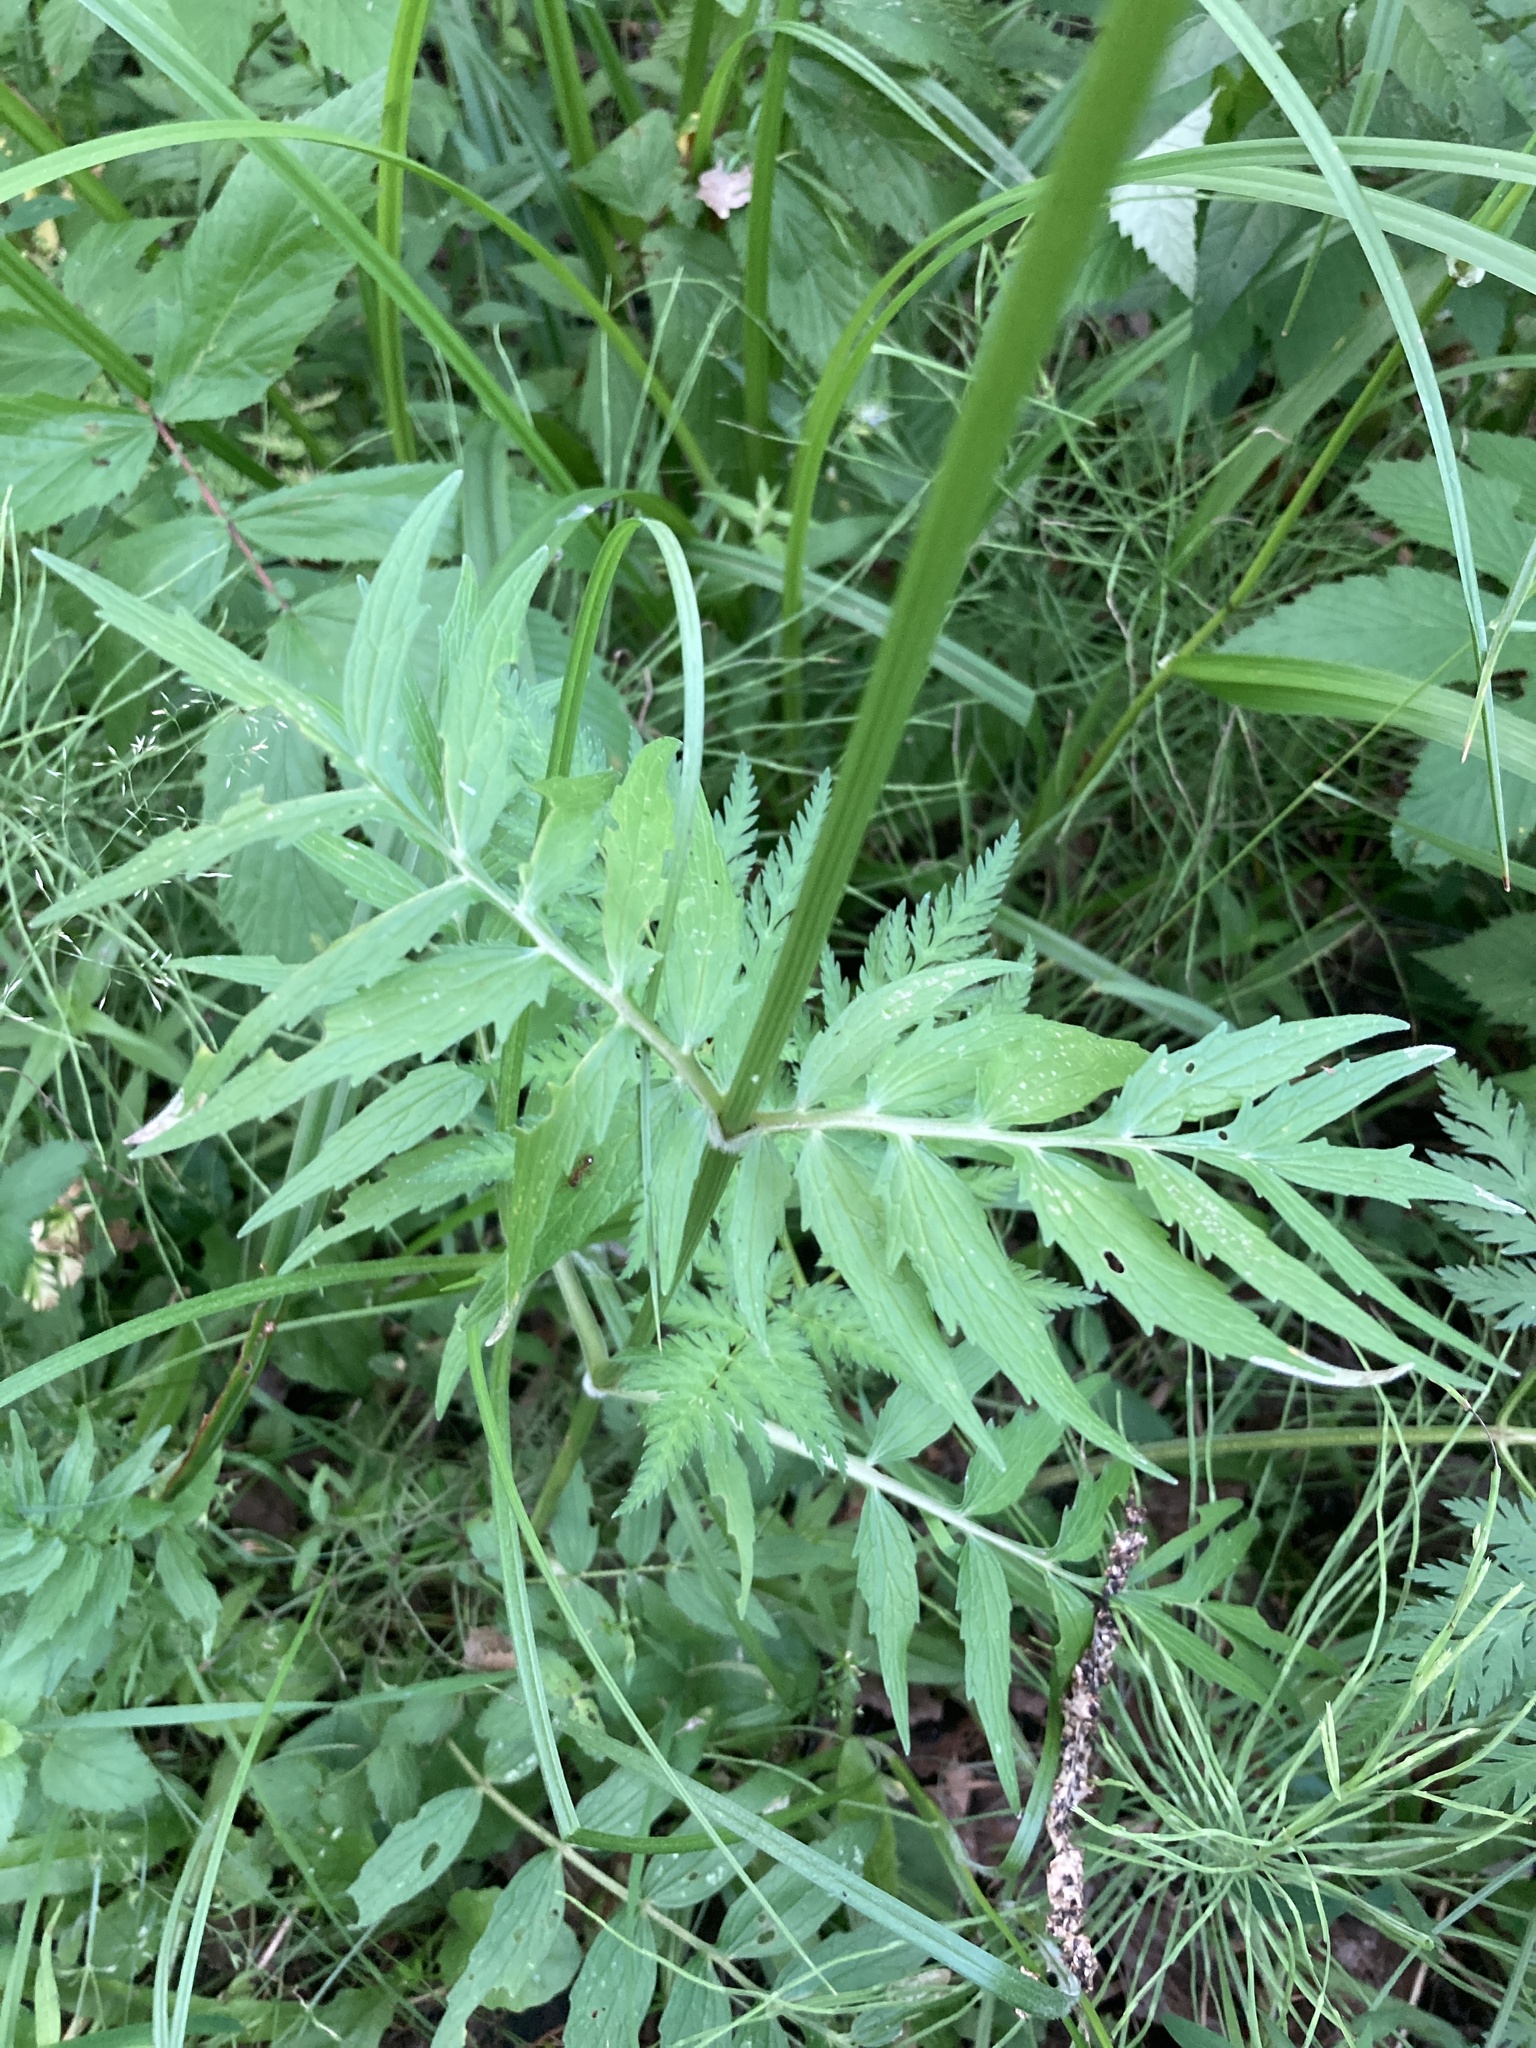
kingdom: Plantae
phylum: Tracheophyta
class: Magnoliopsida
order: Dipsacales
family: Caprifoliaceae
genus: Valeriana
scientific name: Valeriana officinalis
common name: Common valerian
